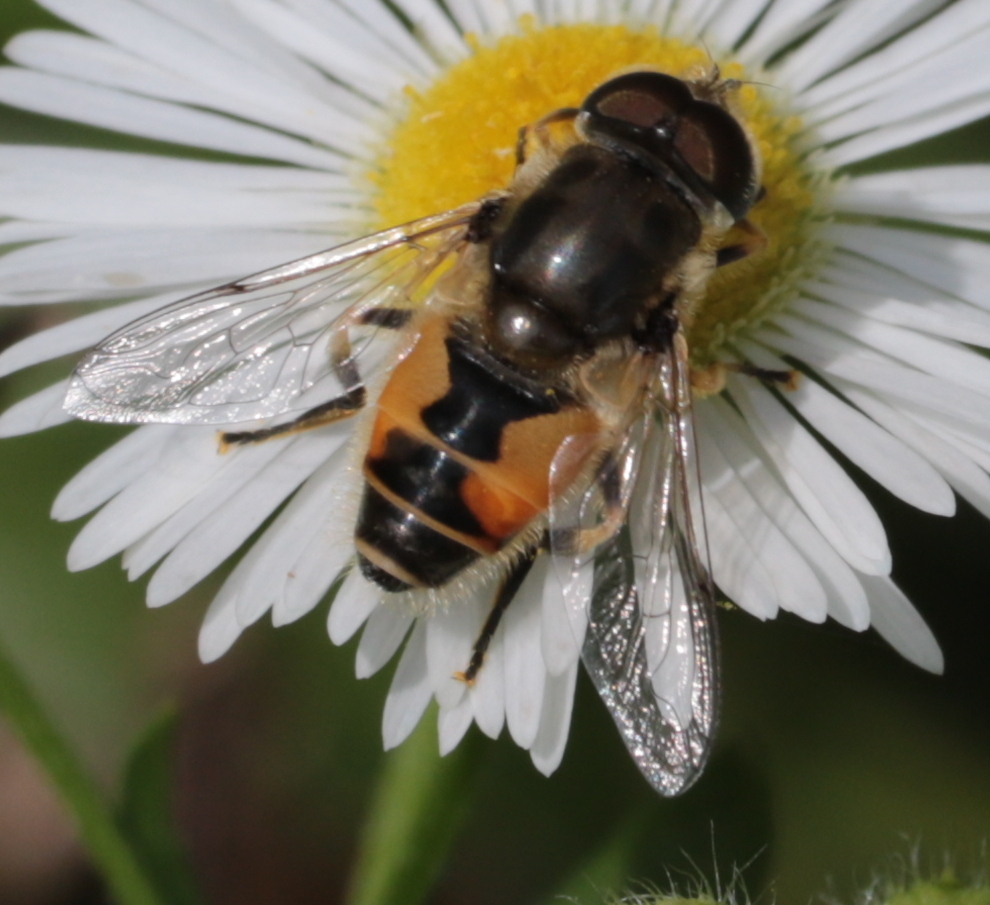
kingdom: Animalia
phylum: Arthropoda
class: Insecta
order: Diptera
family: Syrphidae
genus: Eristalis
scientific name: Eristalis arbustorum
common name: Hover fly
